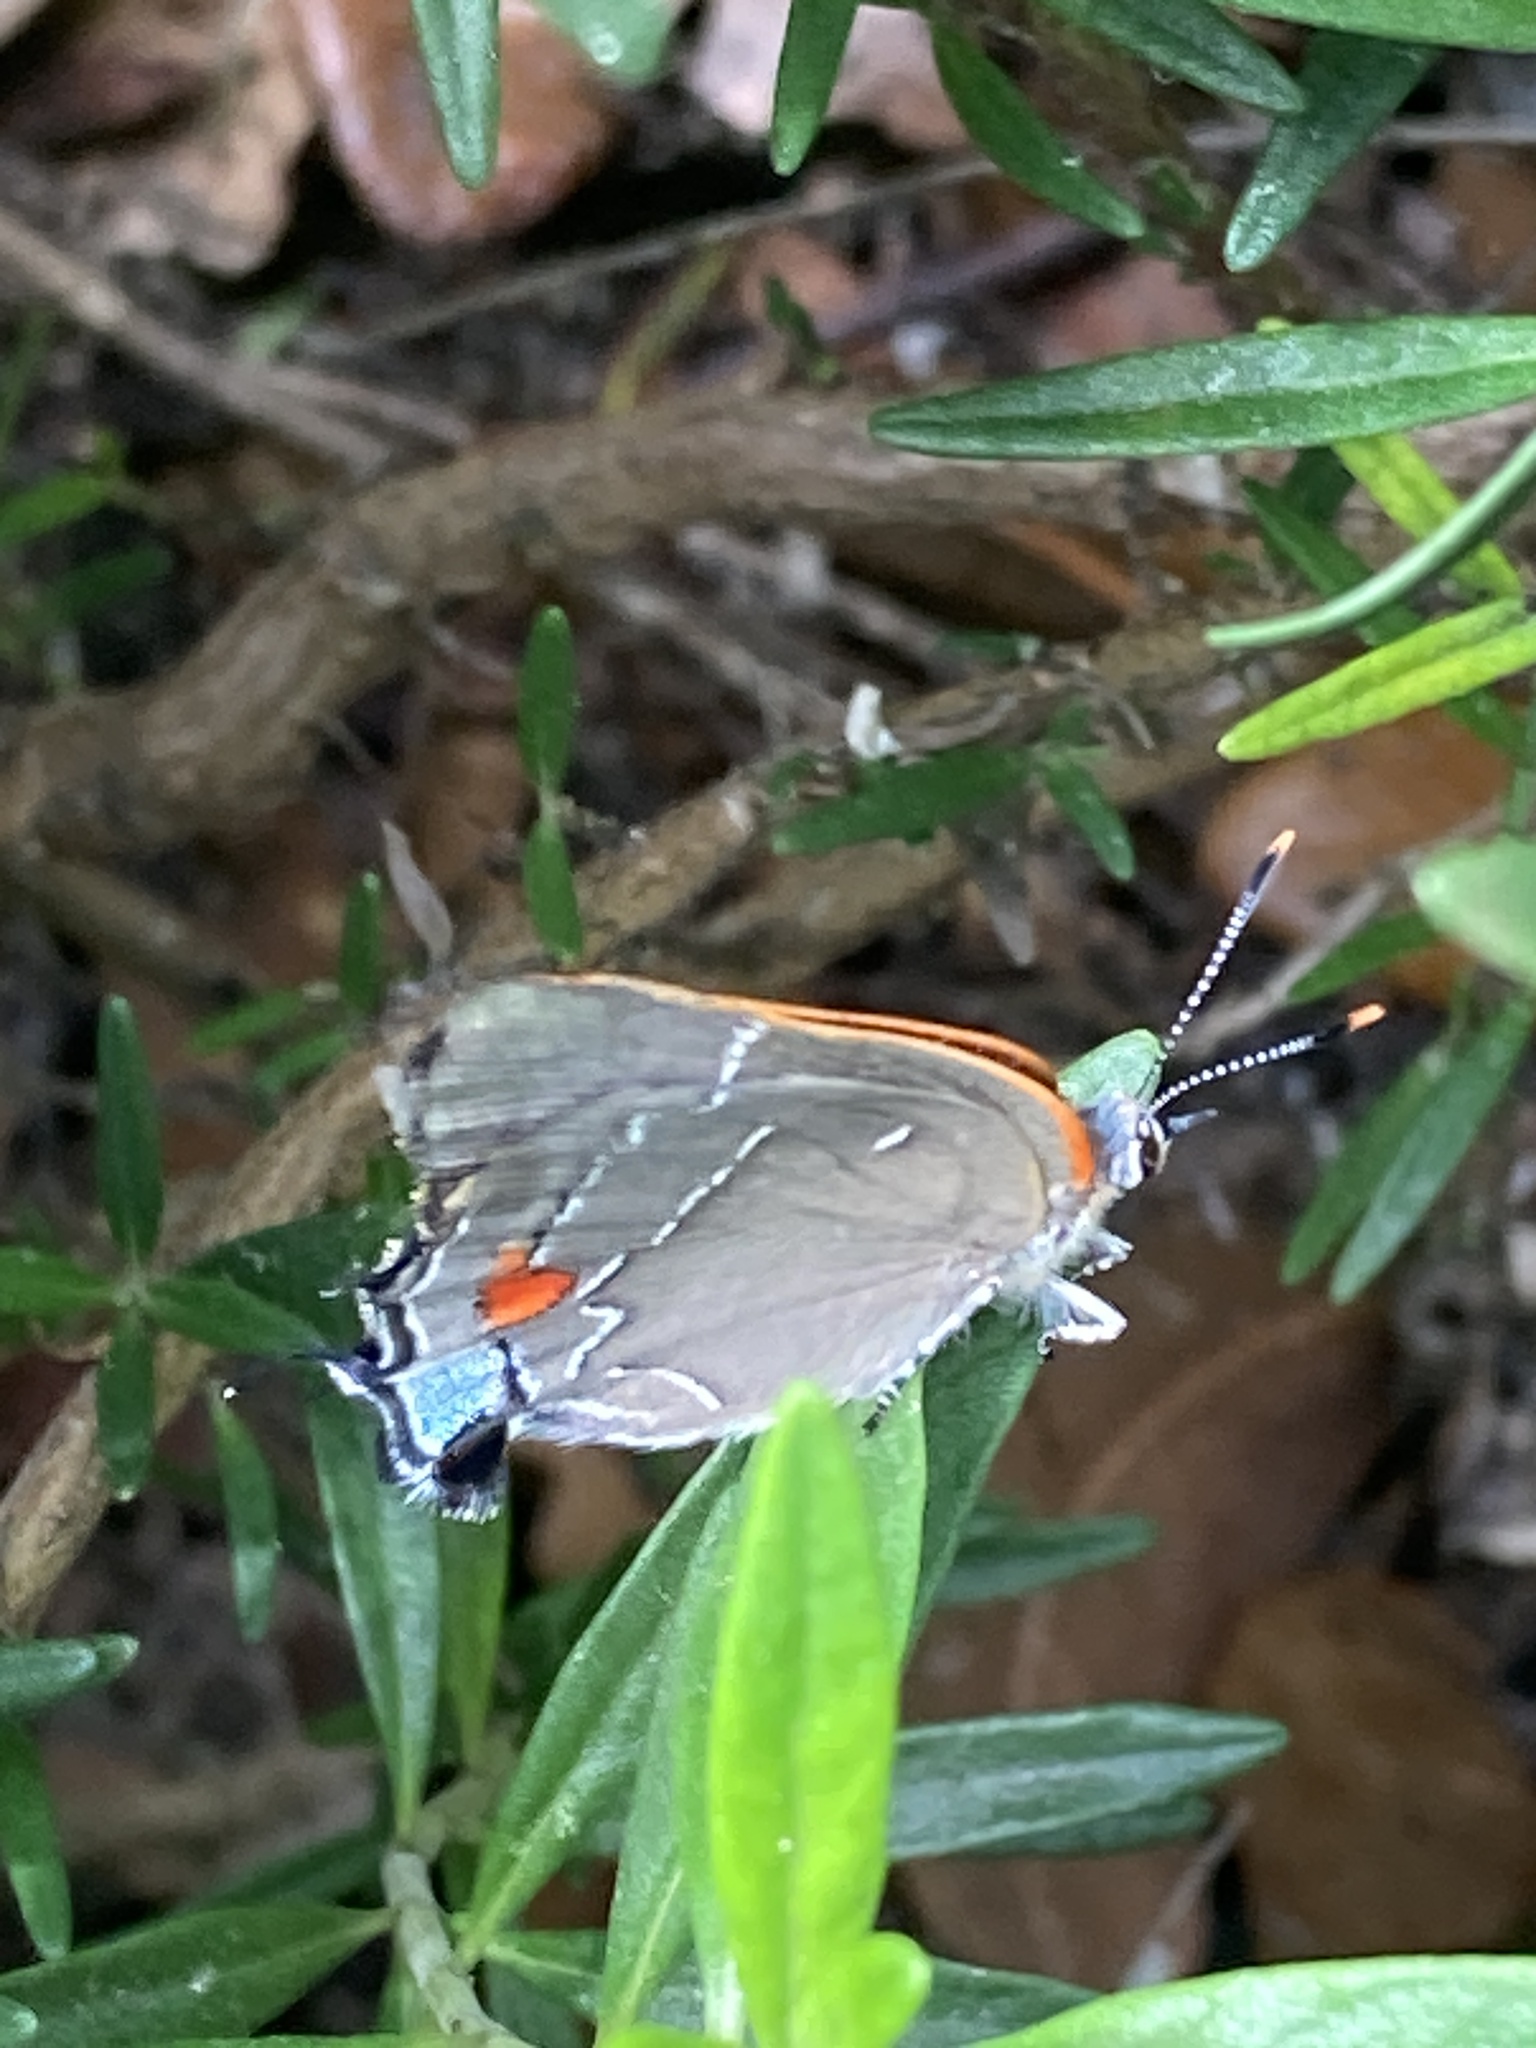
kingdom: Animalia
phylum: Arthropoda
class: Insecta
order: Lepidoptera
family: Lycaenidae
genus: Parrhasius
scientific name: Parrhasius m-album
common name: White m hairstreak
